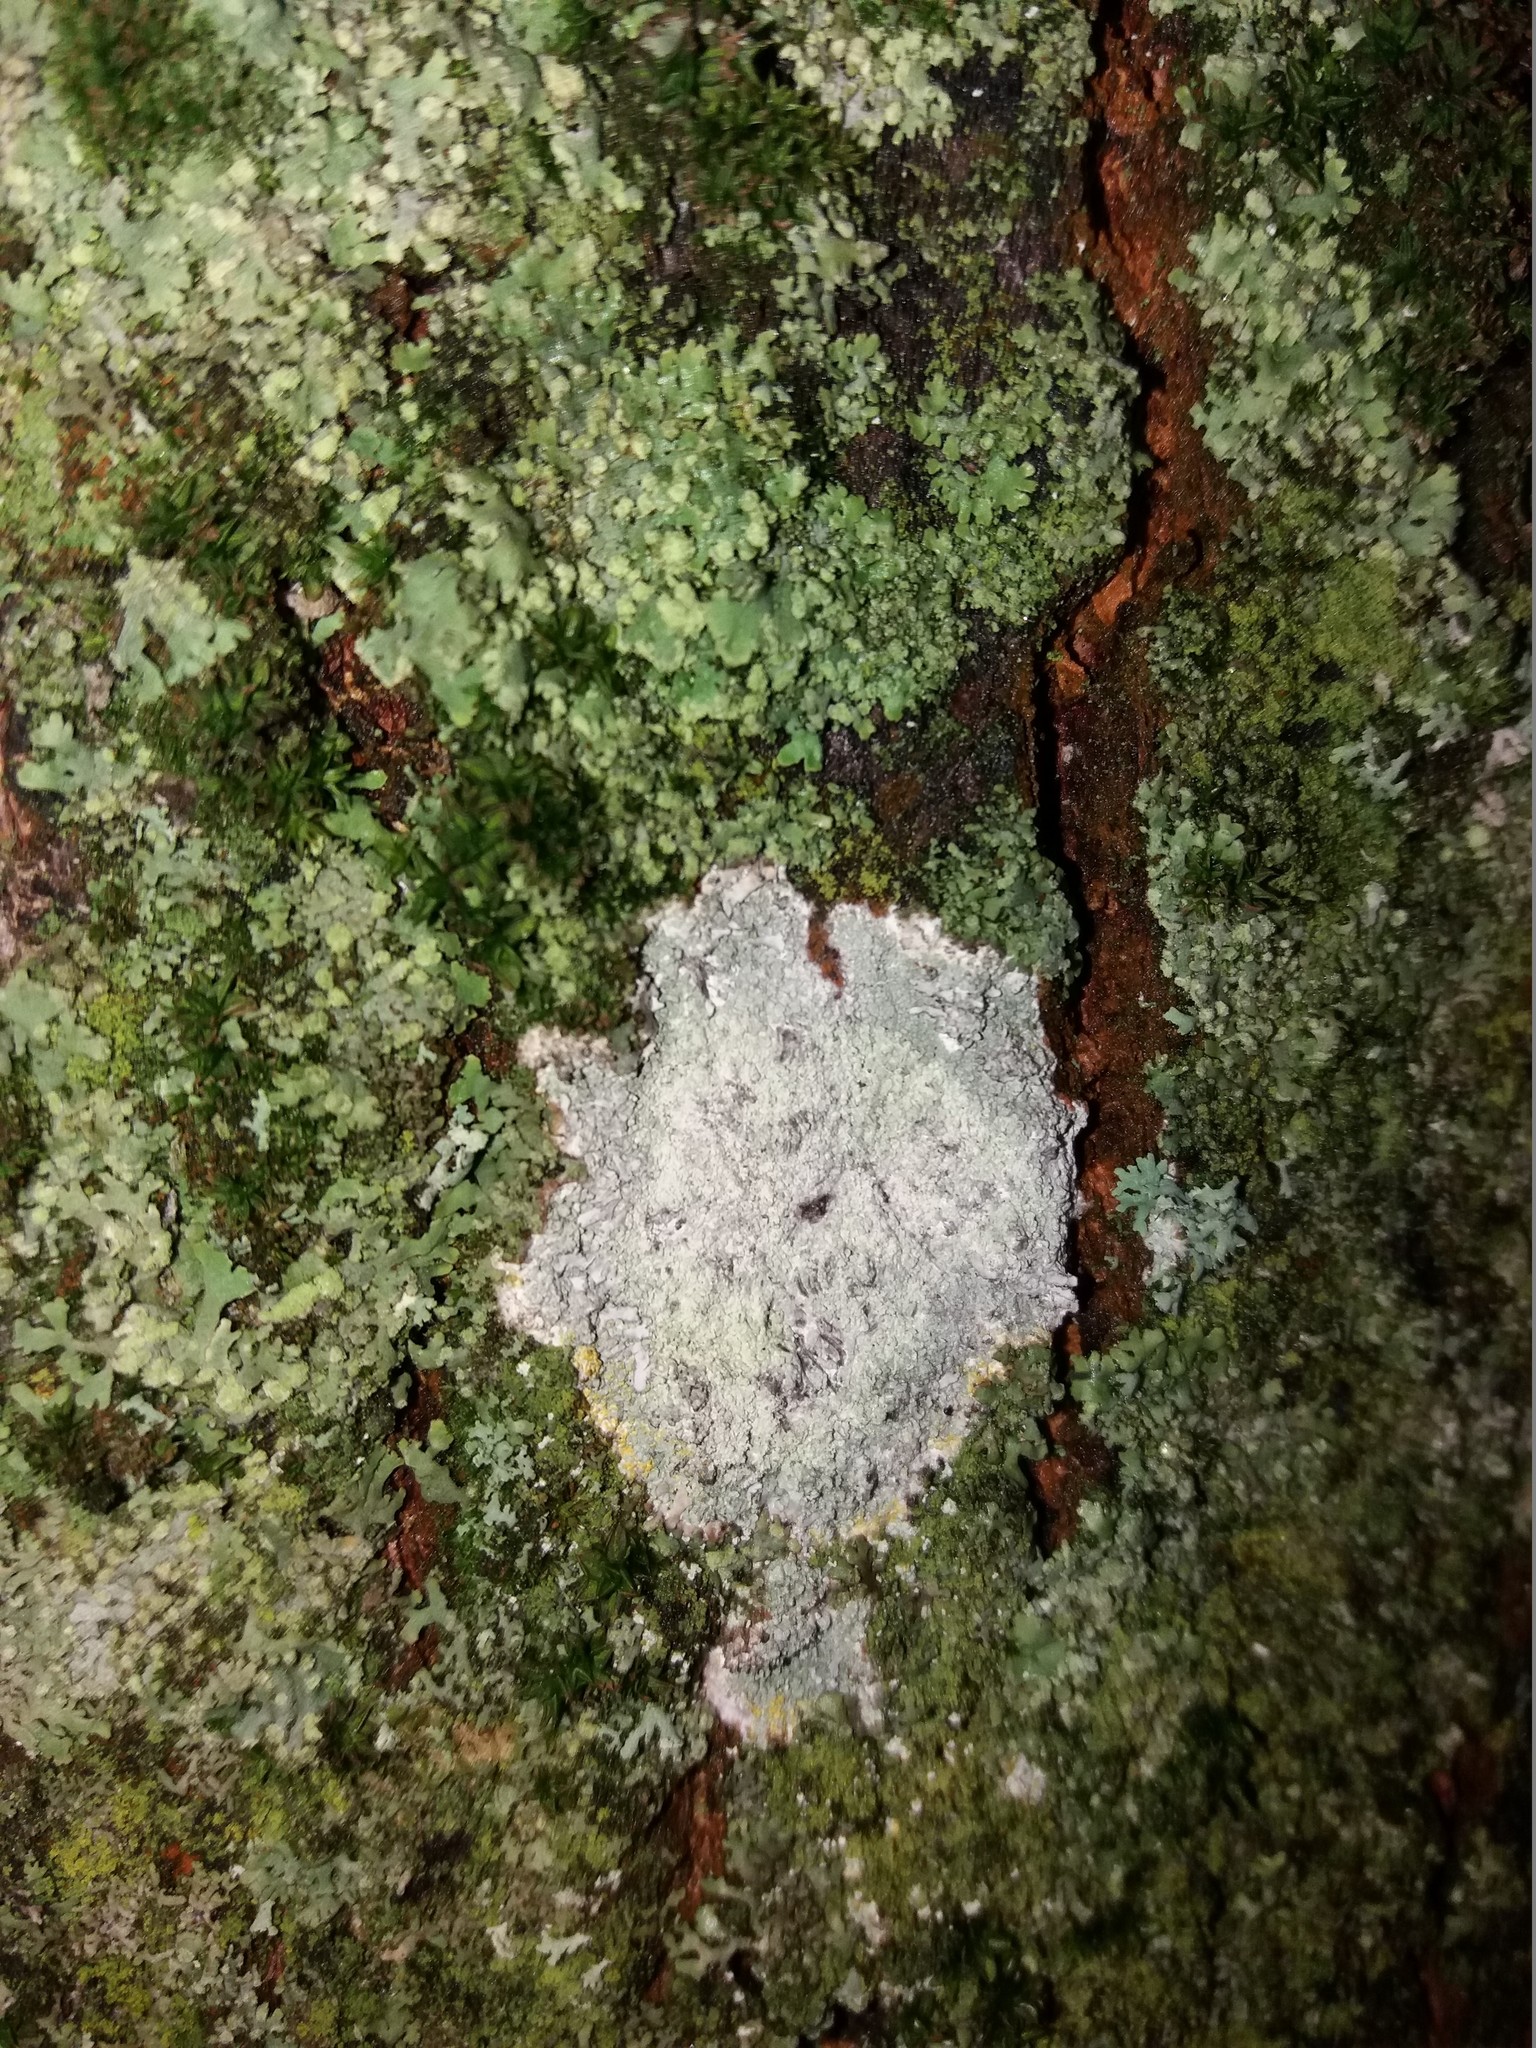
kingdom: Fungi
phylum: Ascomycota
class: Lecanoromycetes
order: Ostropales
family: Phlyctidaceae
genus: Phlyctis
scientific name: Phlyctis argena
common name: Whitewash lichen
